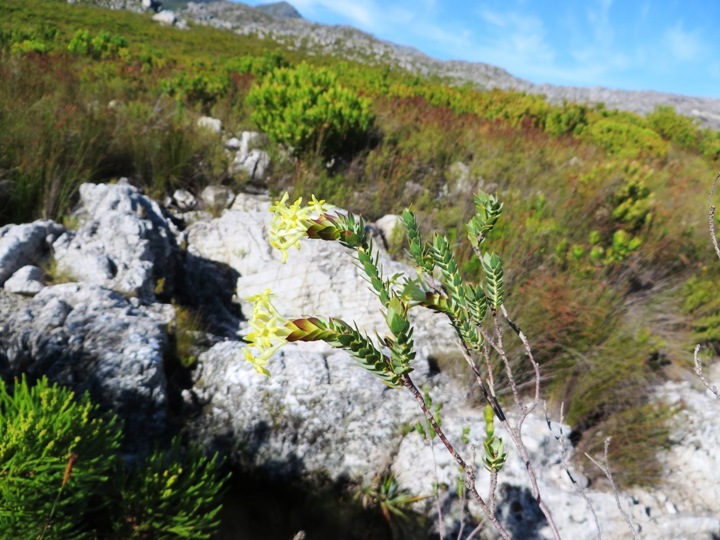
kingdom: Plantae
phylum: Tracheophyta
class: Magnoliopsida
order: Malvales
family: Thymelaeaceae
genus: Gnidia
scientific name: Gnidia oppositifolia
